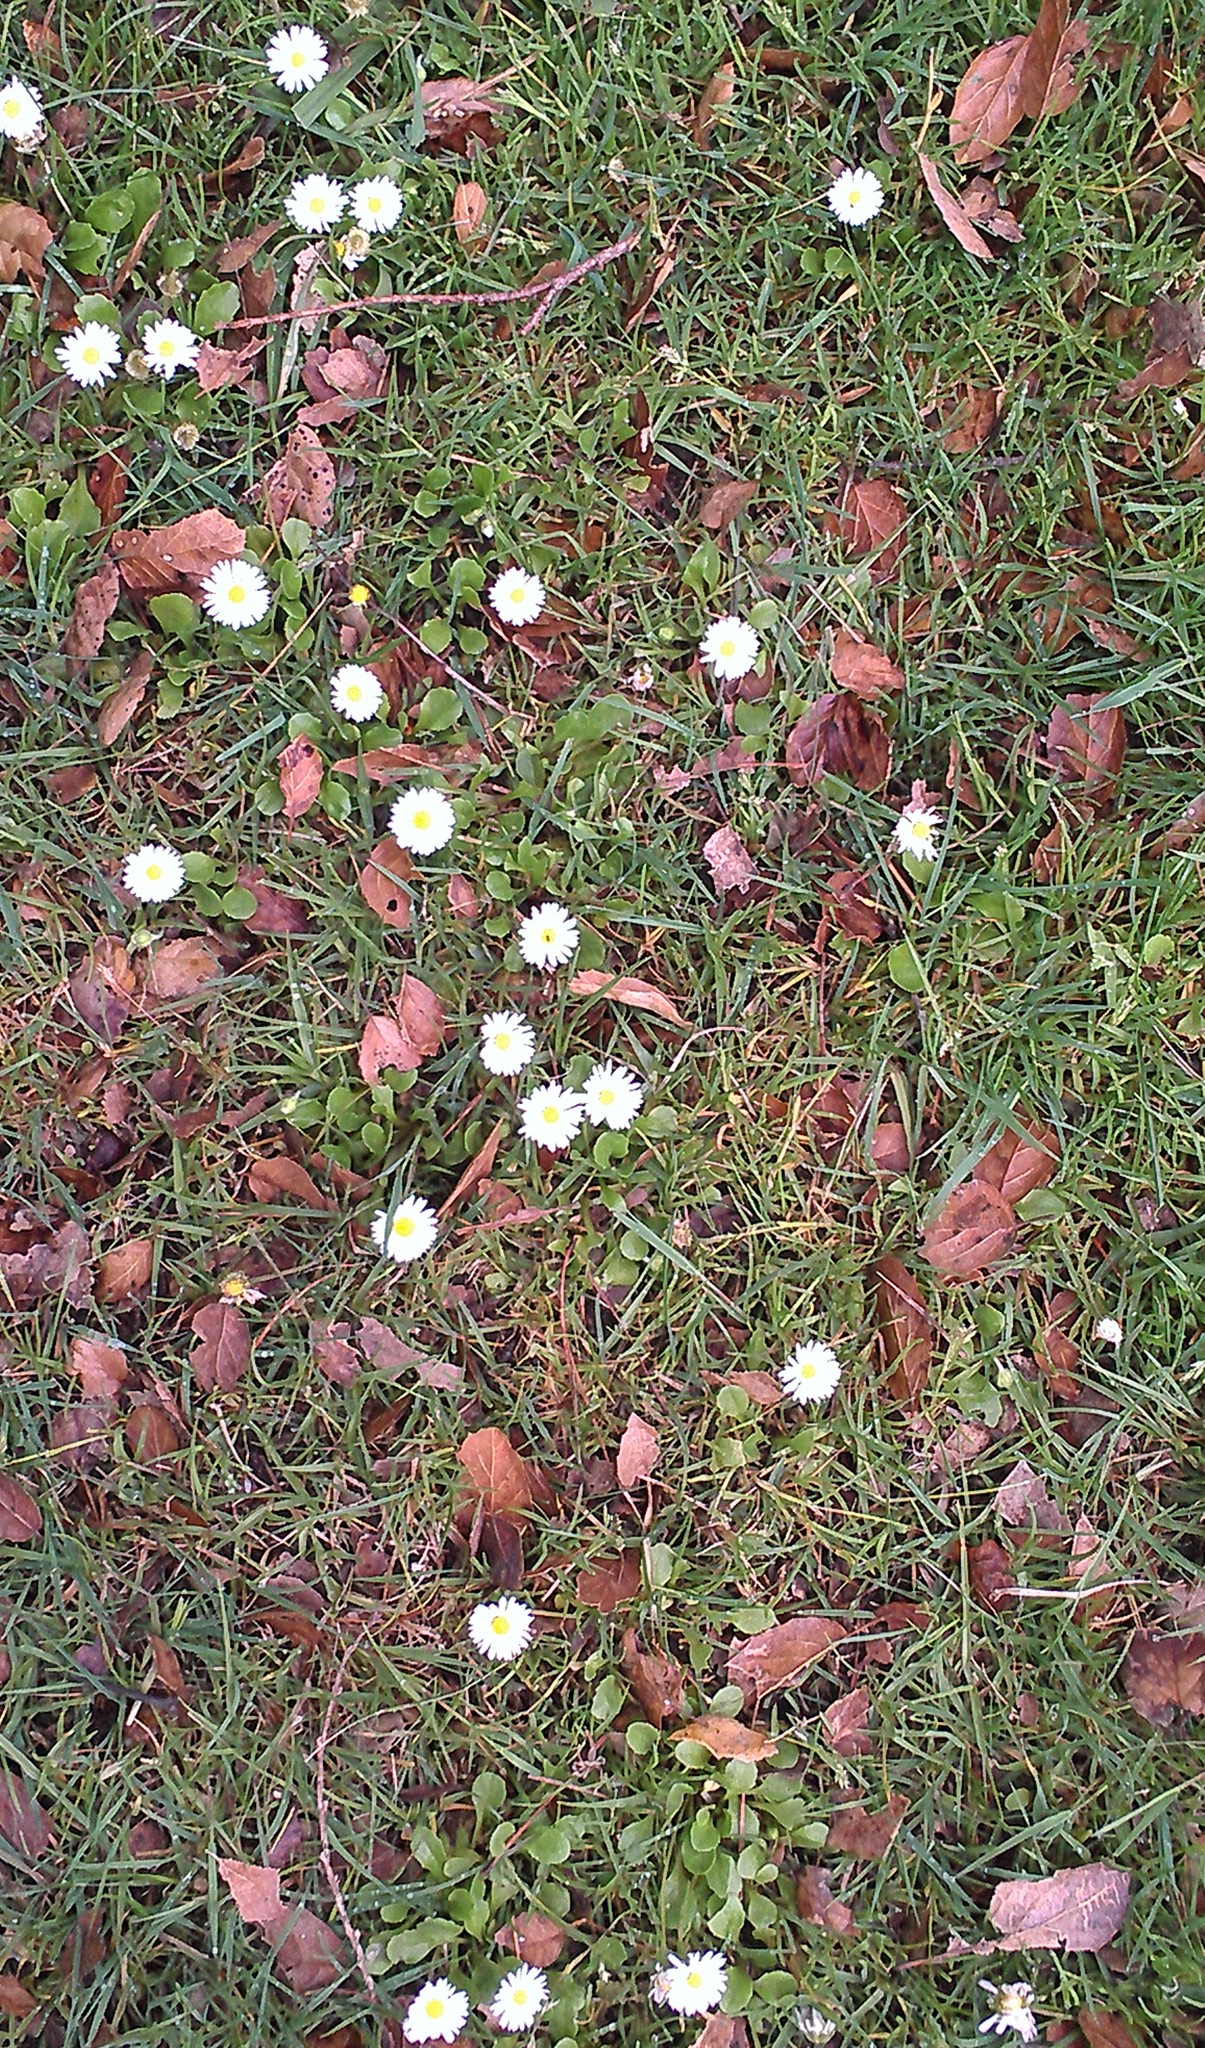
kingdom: Plantae
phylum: Tracheophyta
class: Magnoliopsida
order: Asterales
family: Asteraceae
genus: Bellis
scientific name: Bellis perennis
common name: Lawndaisy
